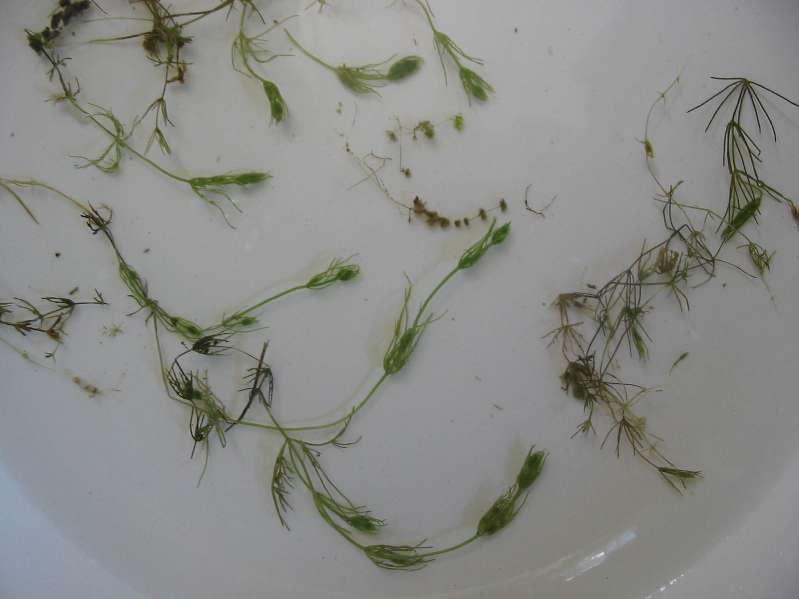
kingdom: Plantae
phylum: Charophyta
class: Charophyceae
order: Charales
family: Characeae
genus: Chara
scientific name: Chara vulgaris
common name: Common stonewort
